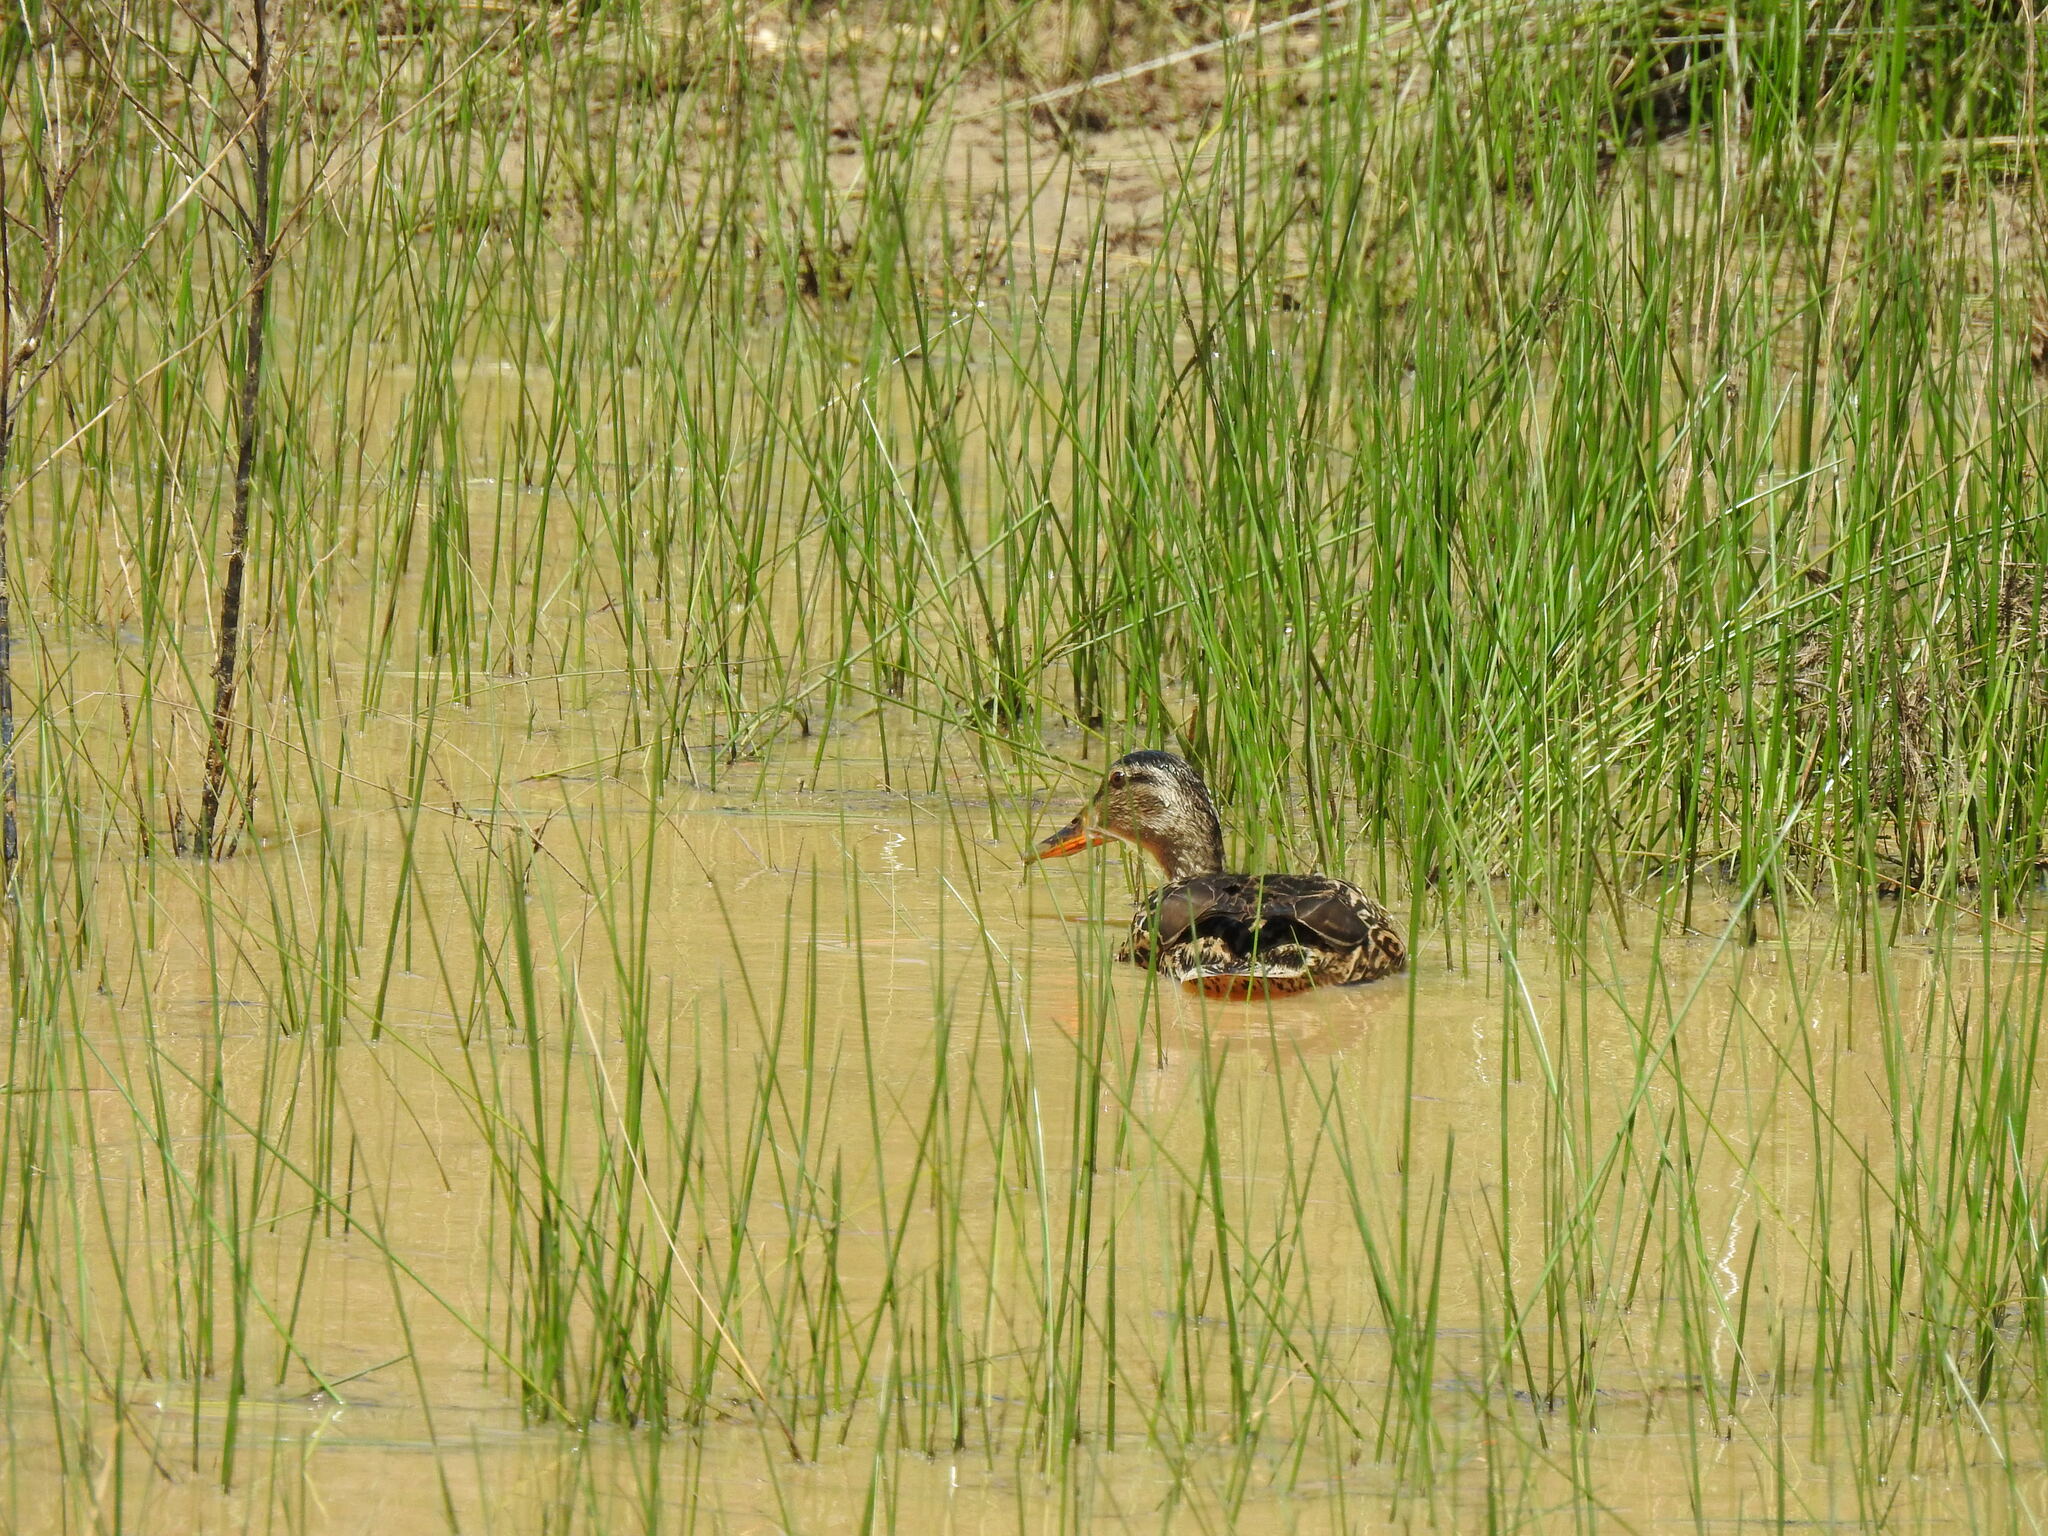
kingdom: Animalia
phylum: Chordata
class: Aves
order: Anseriformes
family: Anatidae
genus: Anas
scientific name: Anas platyrhynchos
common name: Mallard
